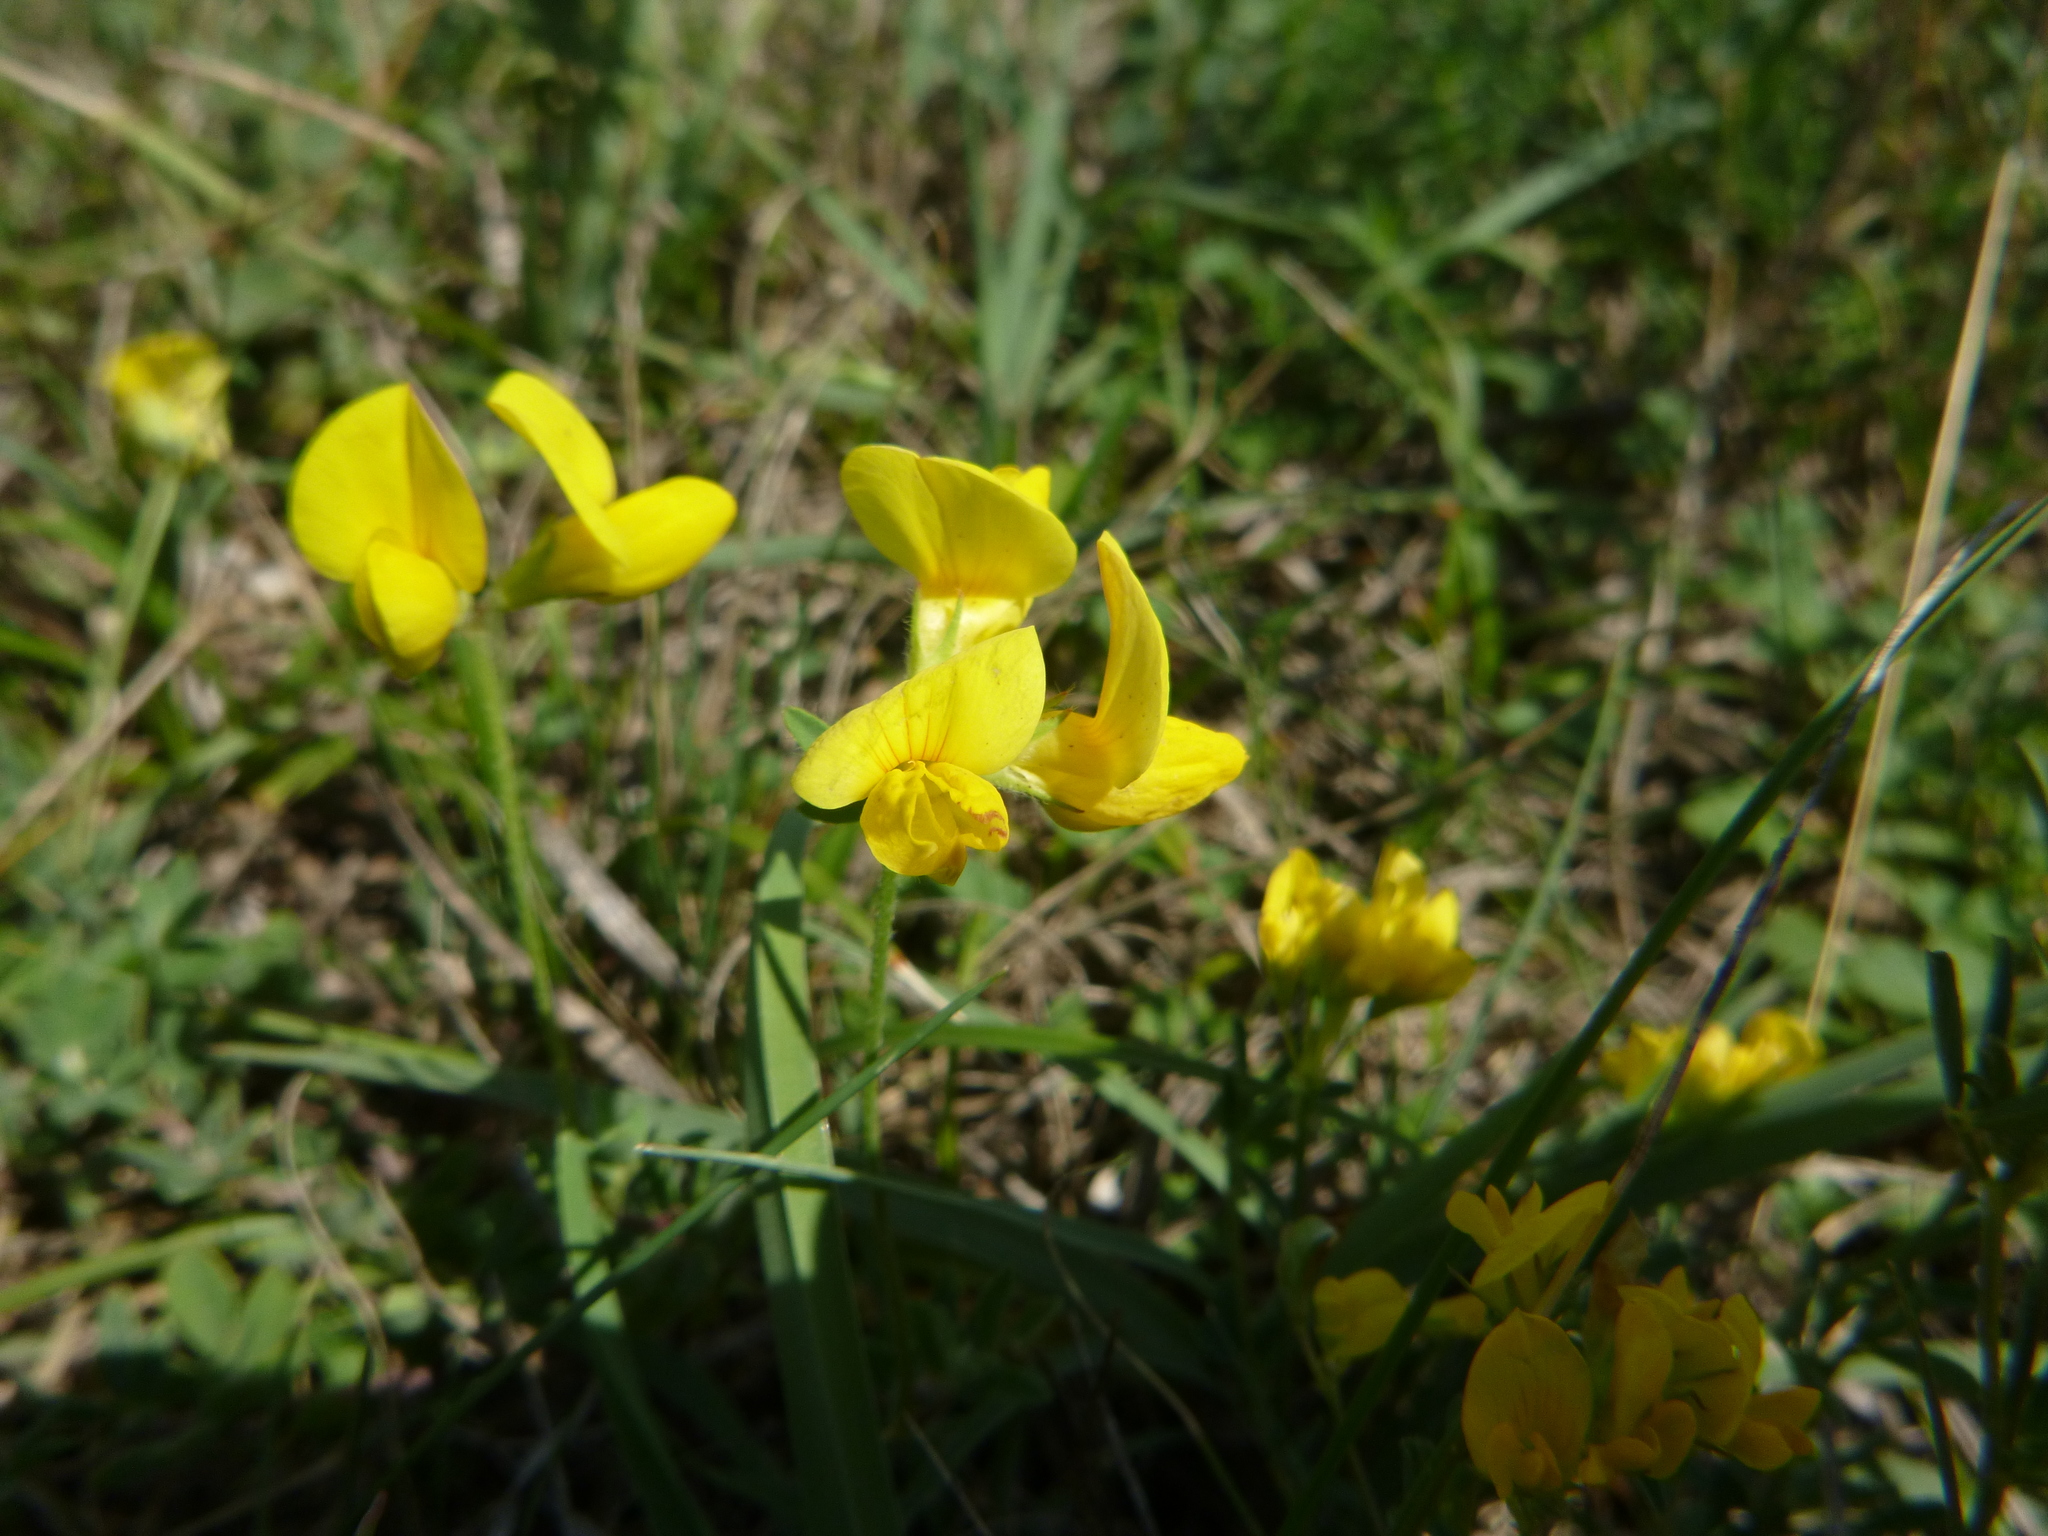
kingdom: Plantae
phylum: Tracheophyta
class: Magnoliopsida
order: Fabales
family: Fabaceae
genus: Lotus
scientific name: Lotus corniculatus
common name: Common bird's-foot-trefoil
